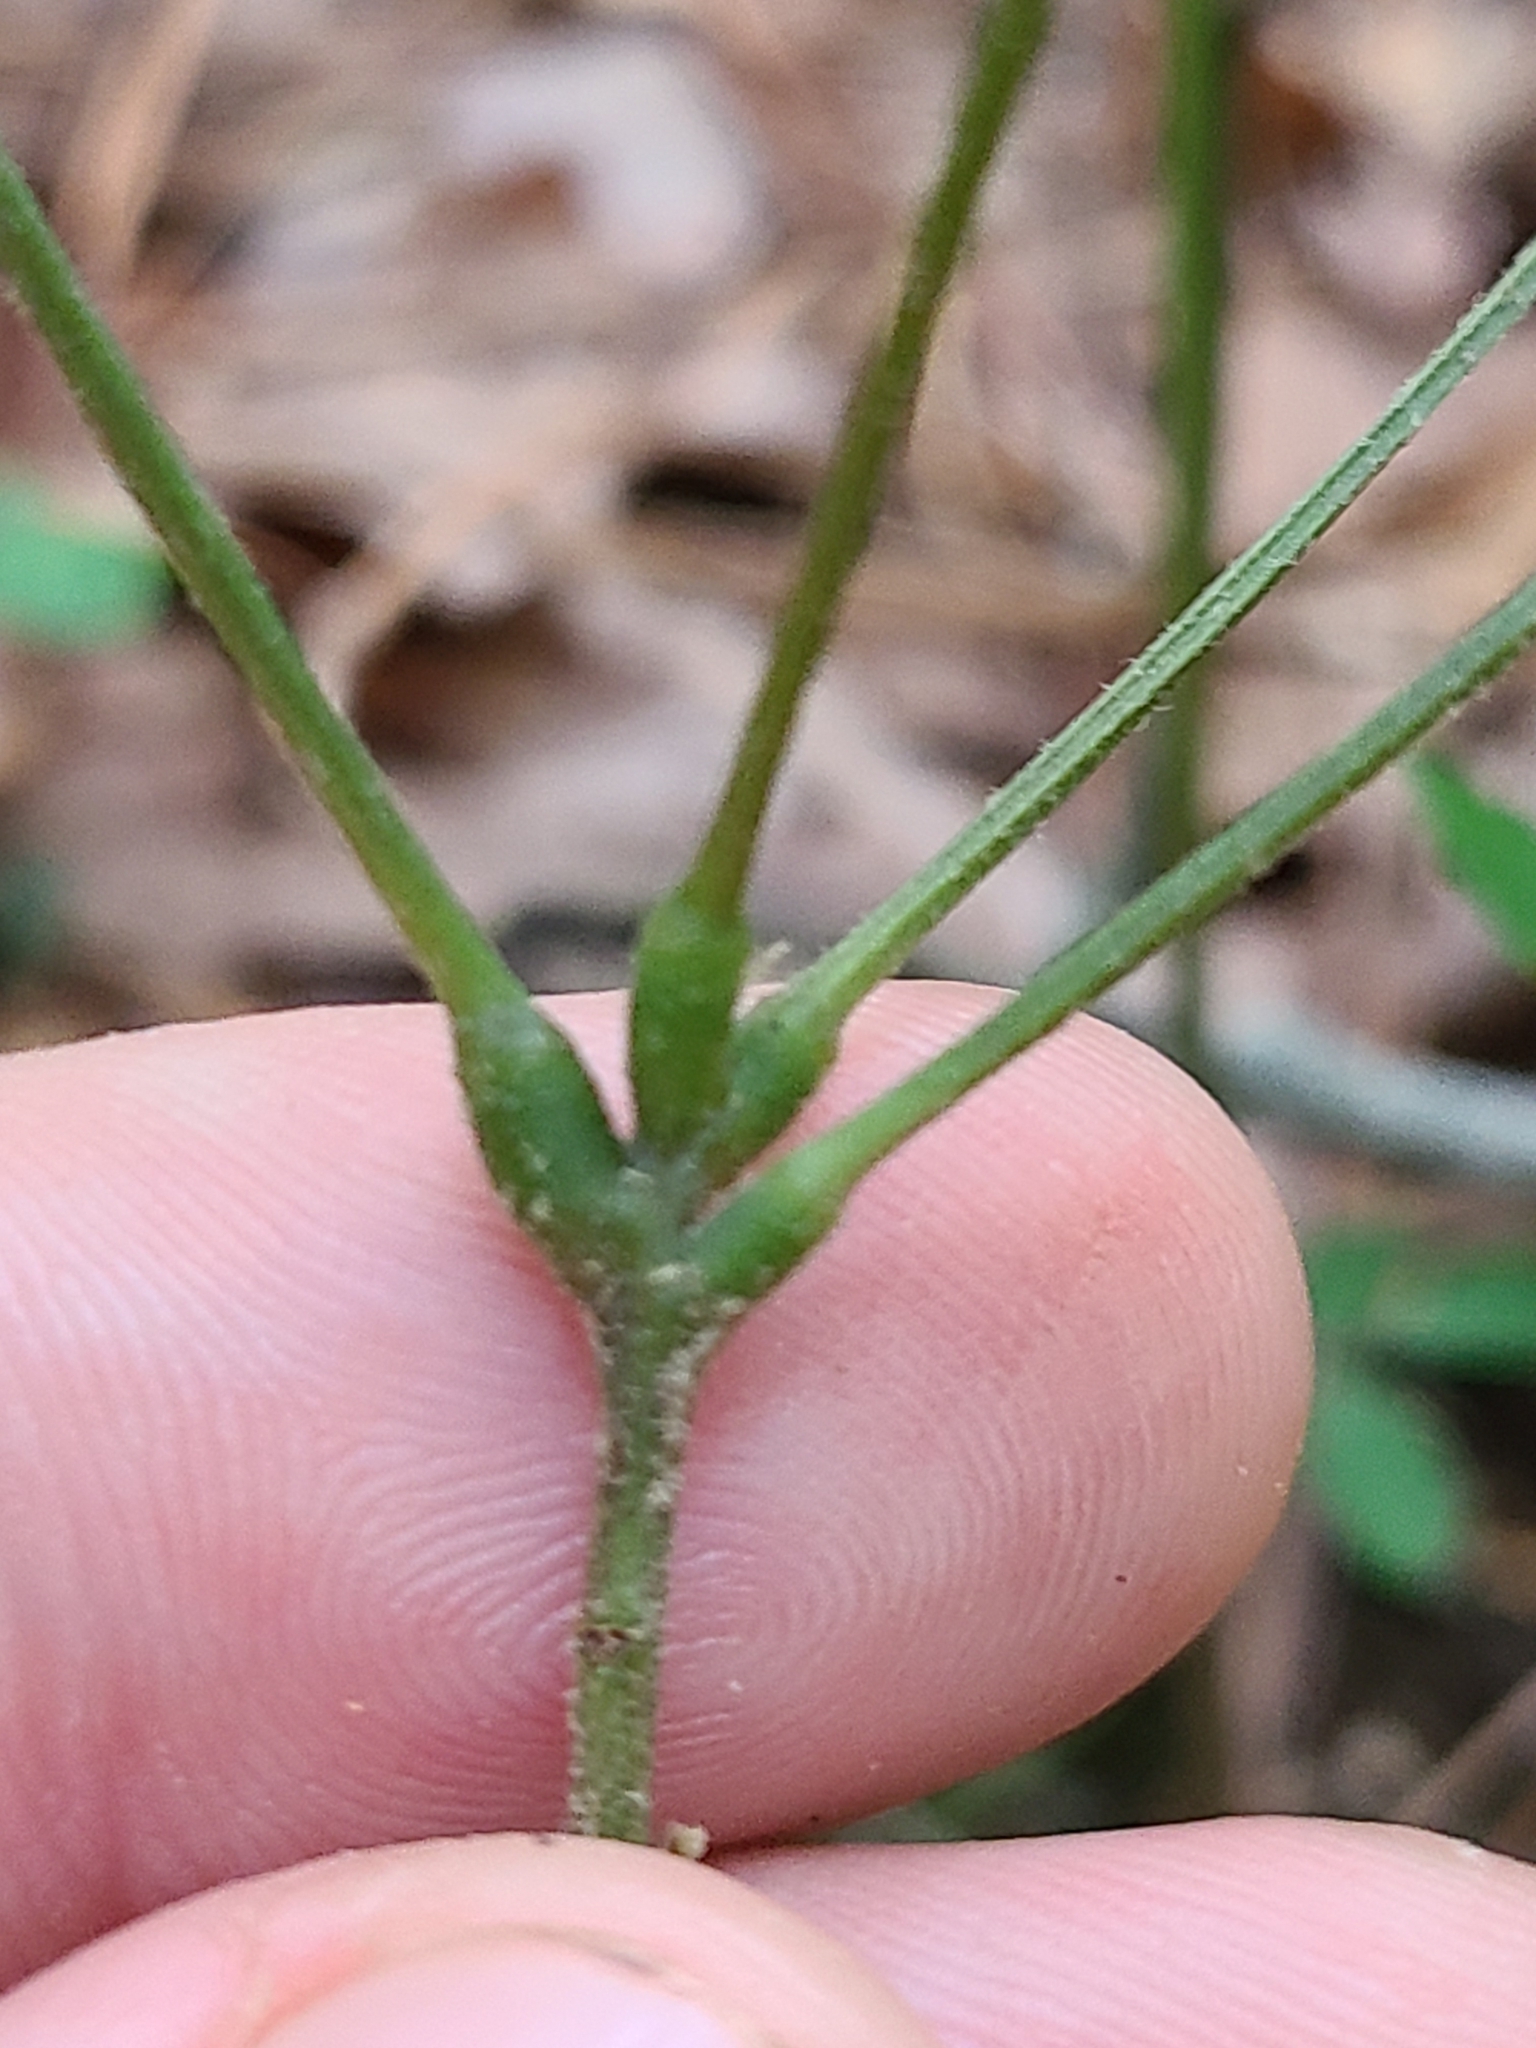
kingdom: Plantae
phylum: Tracheophyta
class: Magnoliopsida
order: Fabales
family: Fabaceae
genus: Hylodesmum
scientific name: Hylodesmum nudiflorum
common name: Bare-stemmed tick-trefoil
